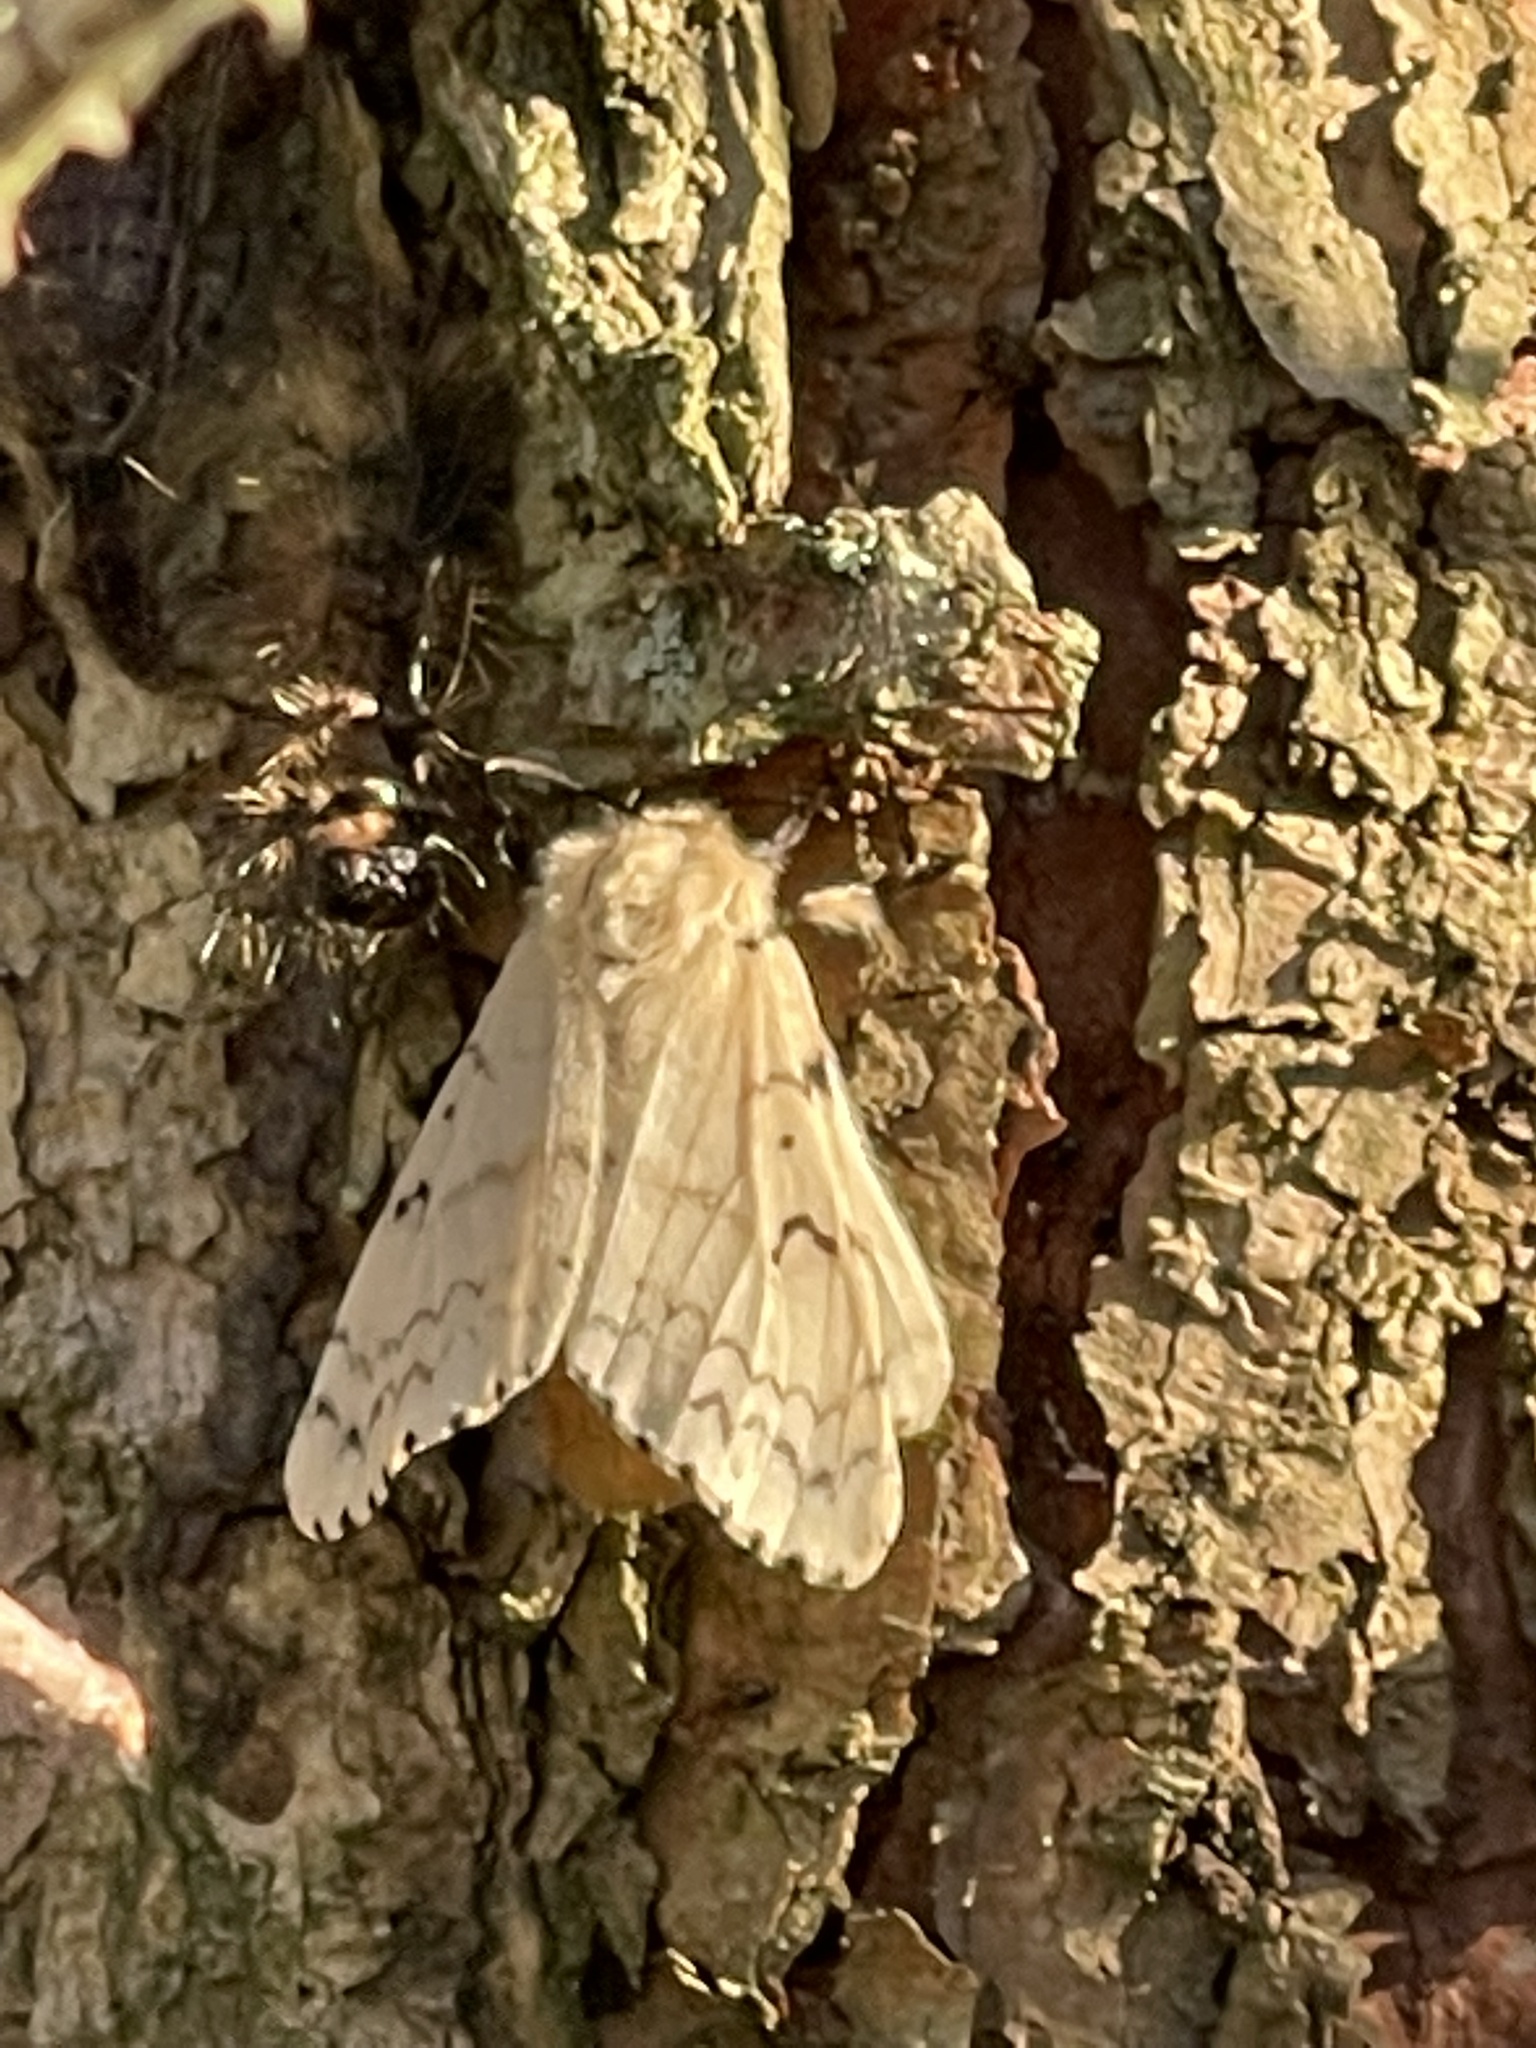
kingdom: Animalia
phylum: Arthropoda
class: Insecta
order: Lepidoptera
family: Erebidae
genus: Lymantria
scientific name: Lymantria dispar
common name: Gypsy moth
